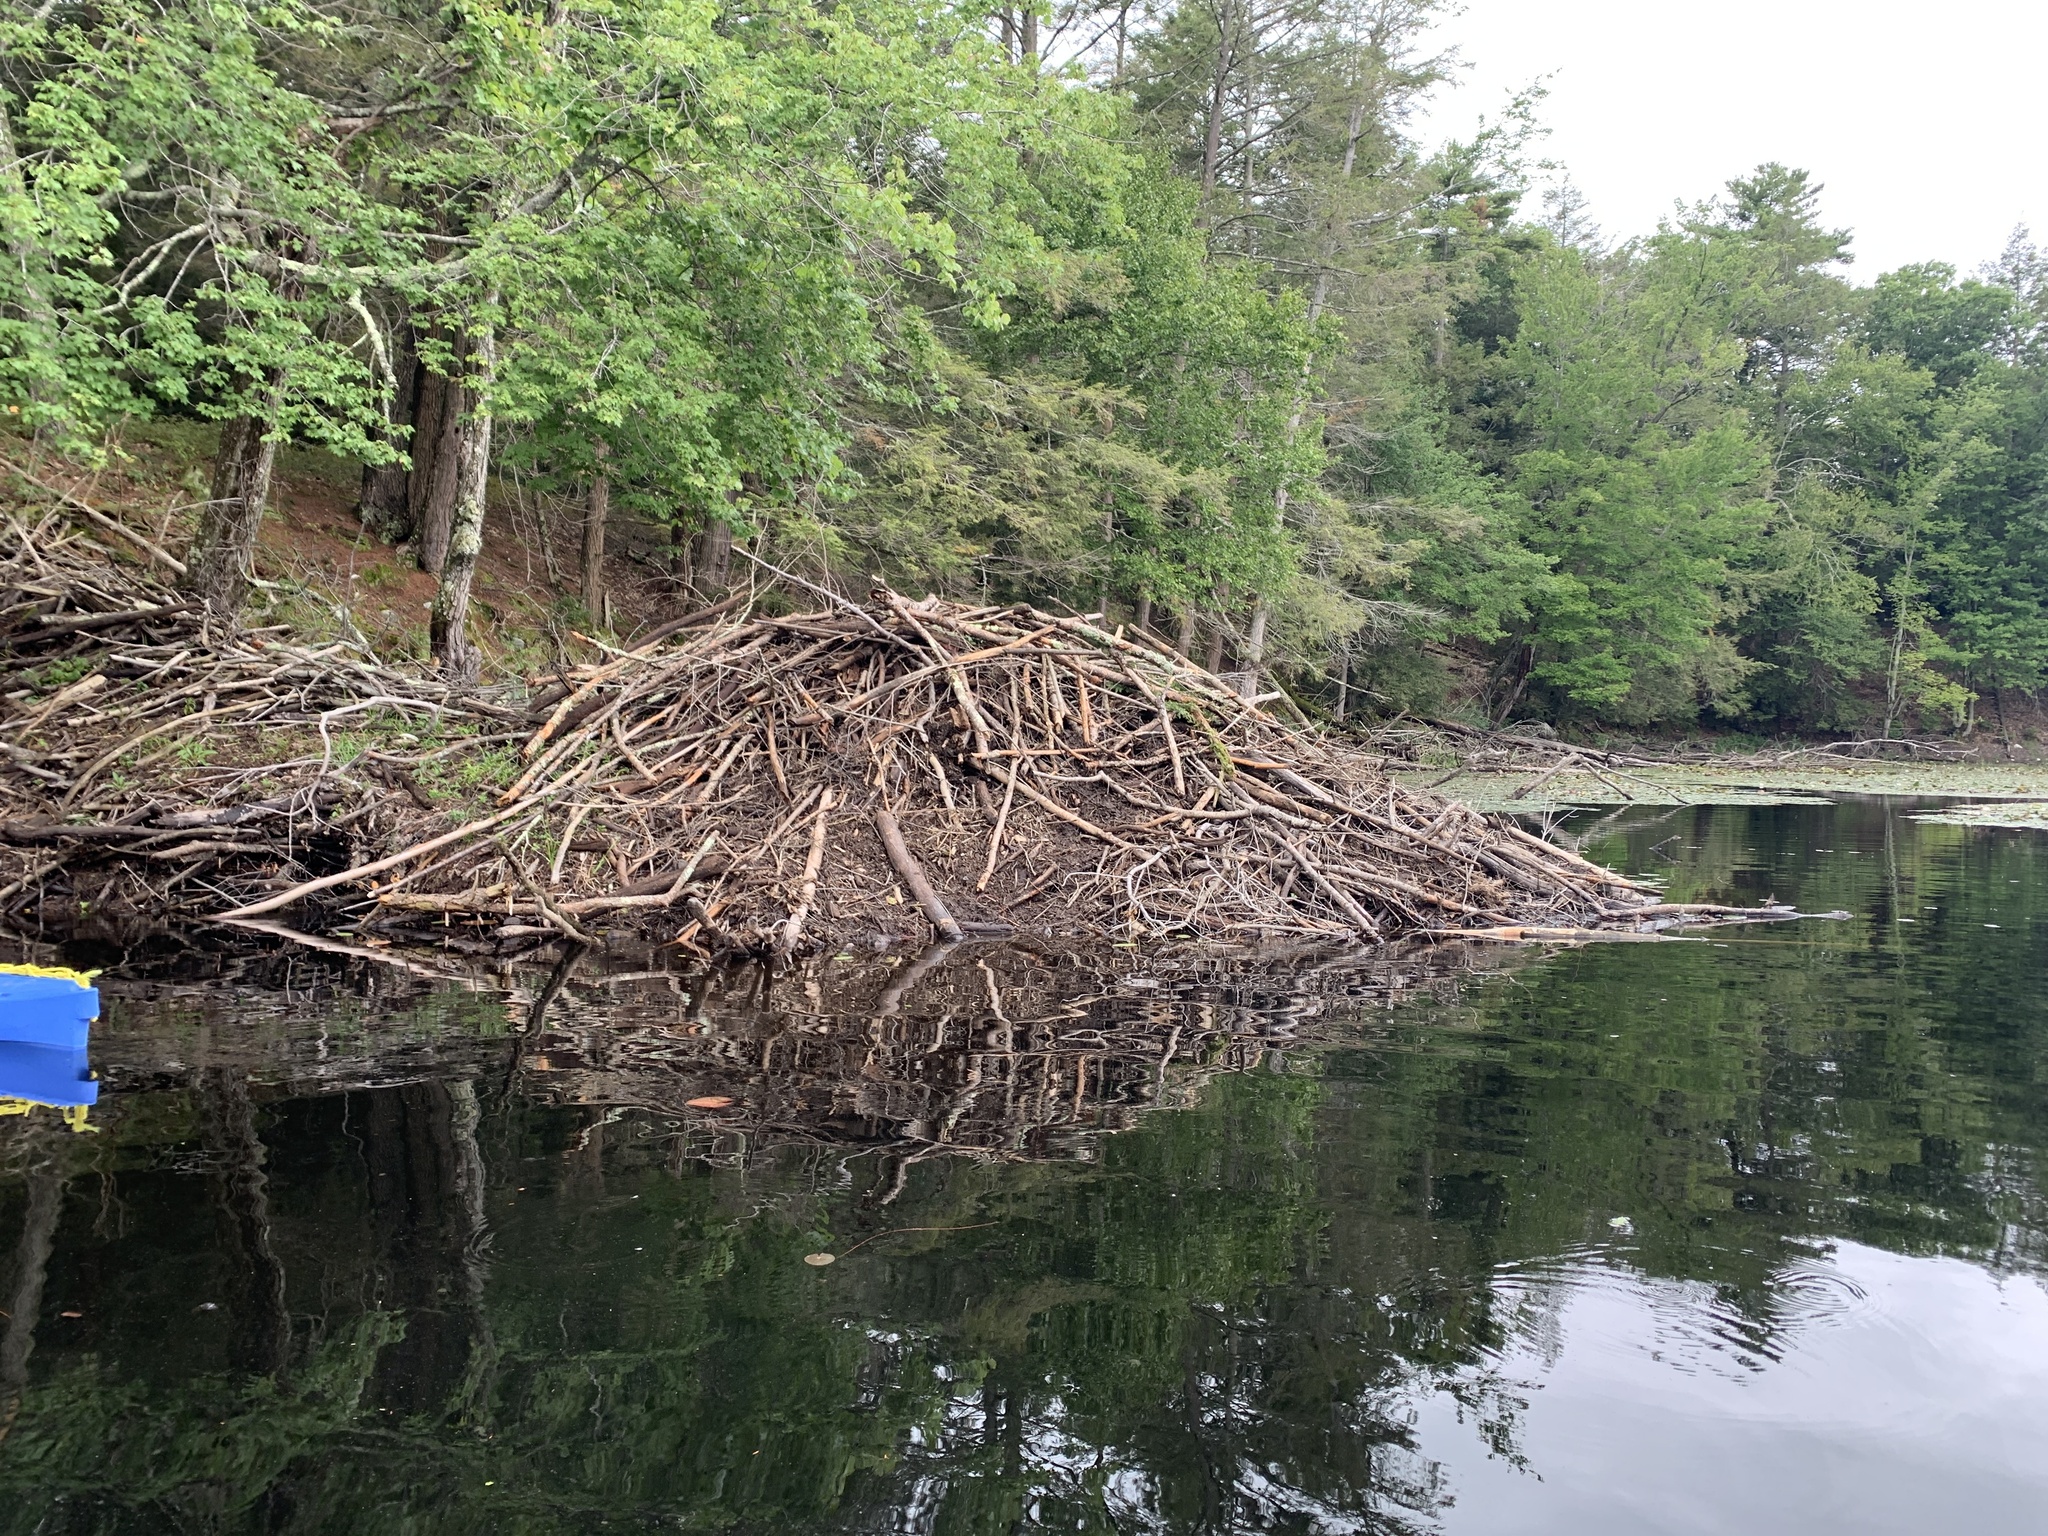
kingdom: Animalia
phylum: Chordata
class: Mammalia
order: Rodentia
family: Castoridae
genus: Castor
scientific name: Castor canadensis
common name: American beaver
